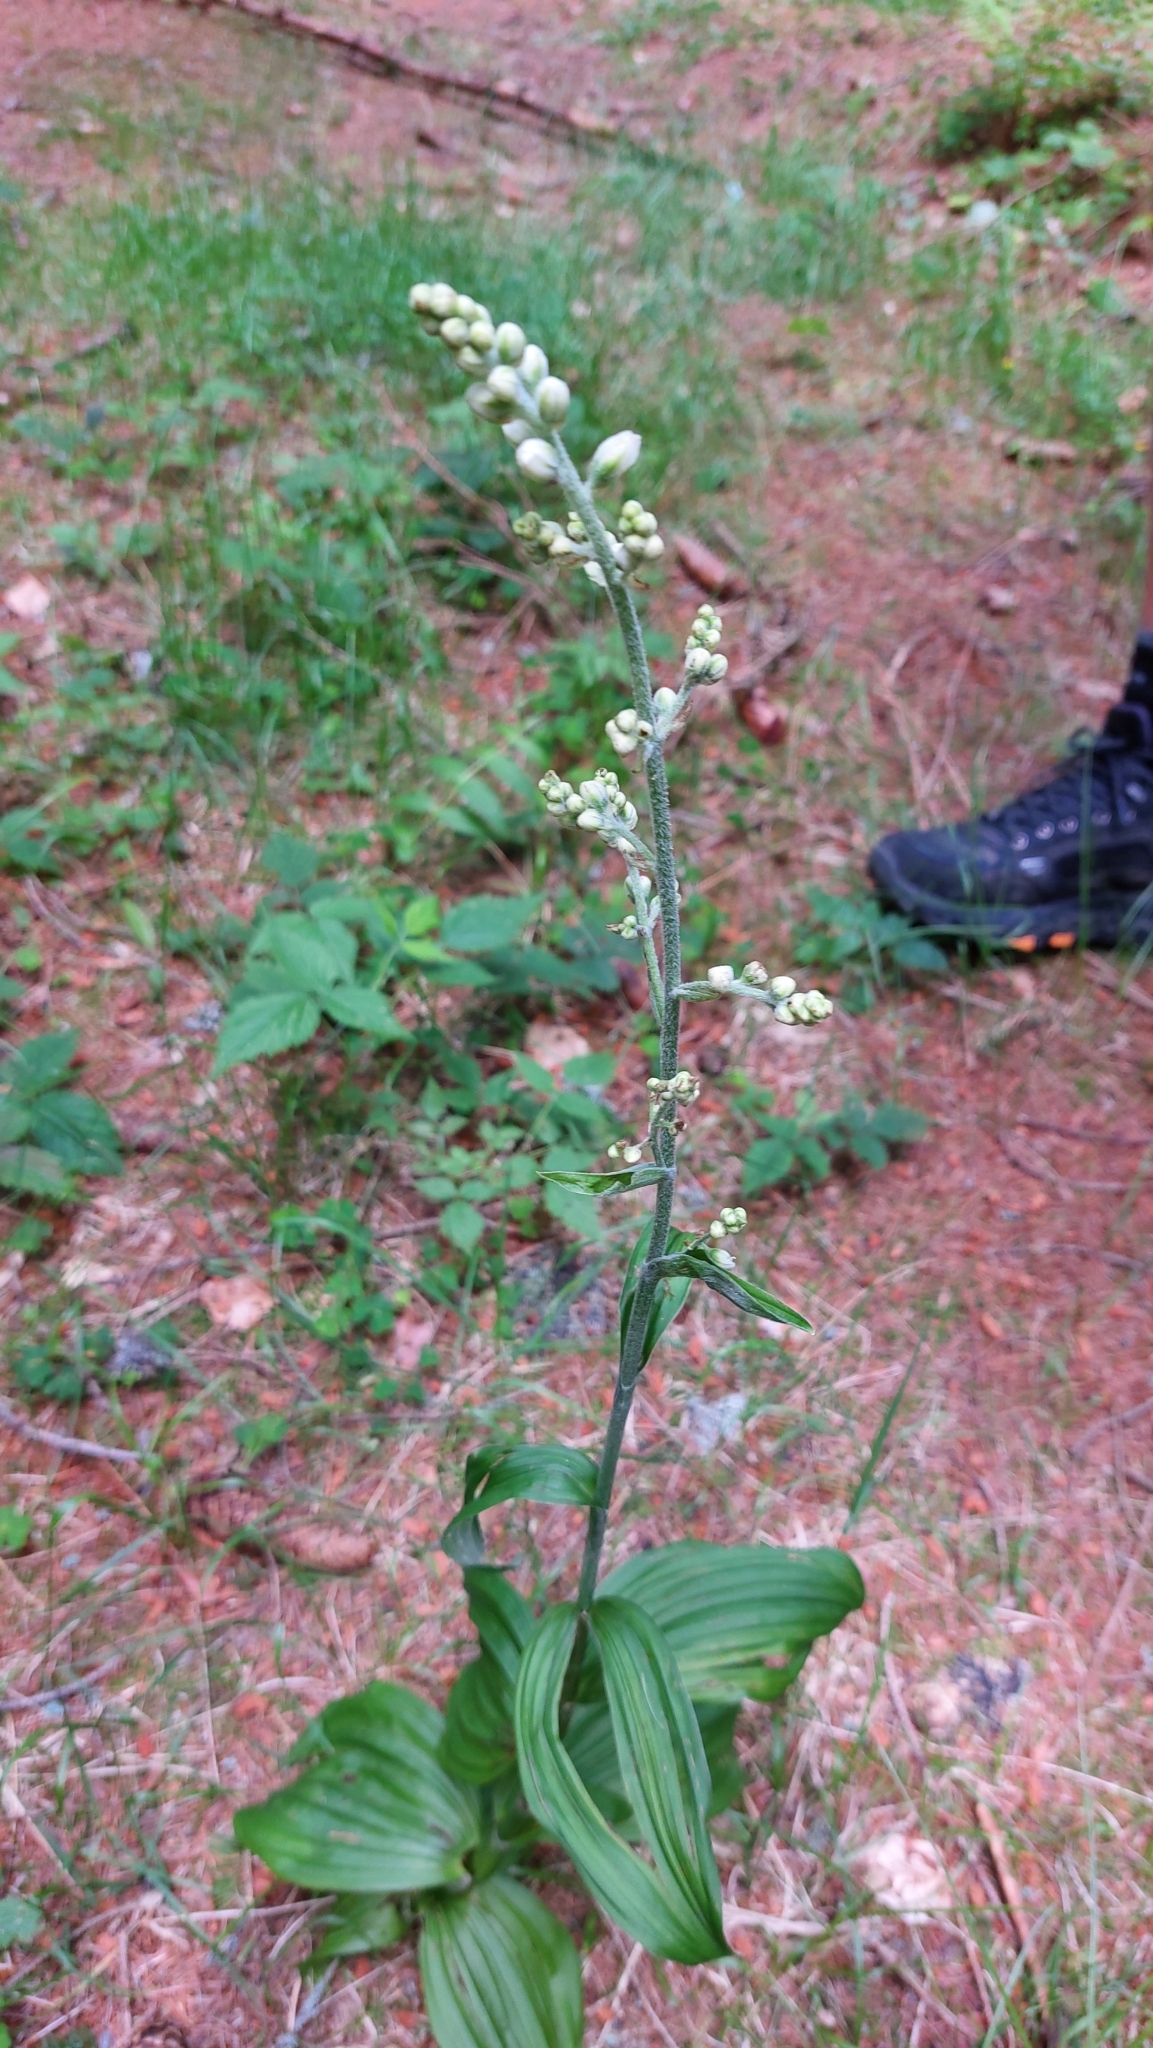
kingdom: Plantae
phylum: Tracheophyta
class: Liliopsida
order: Liliales
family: Melanthiaceae
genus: Veratrum
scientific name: Veratrum album
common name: White veratrum
